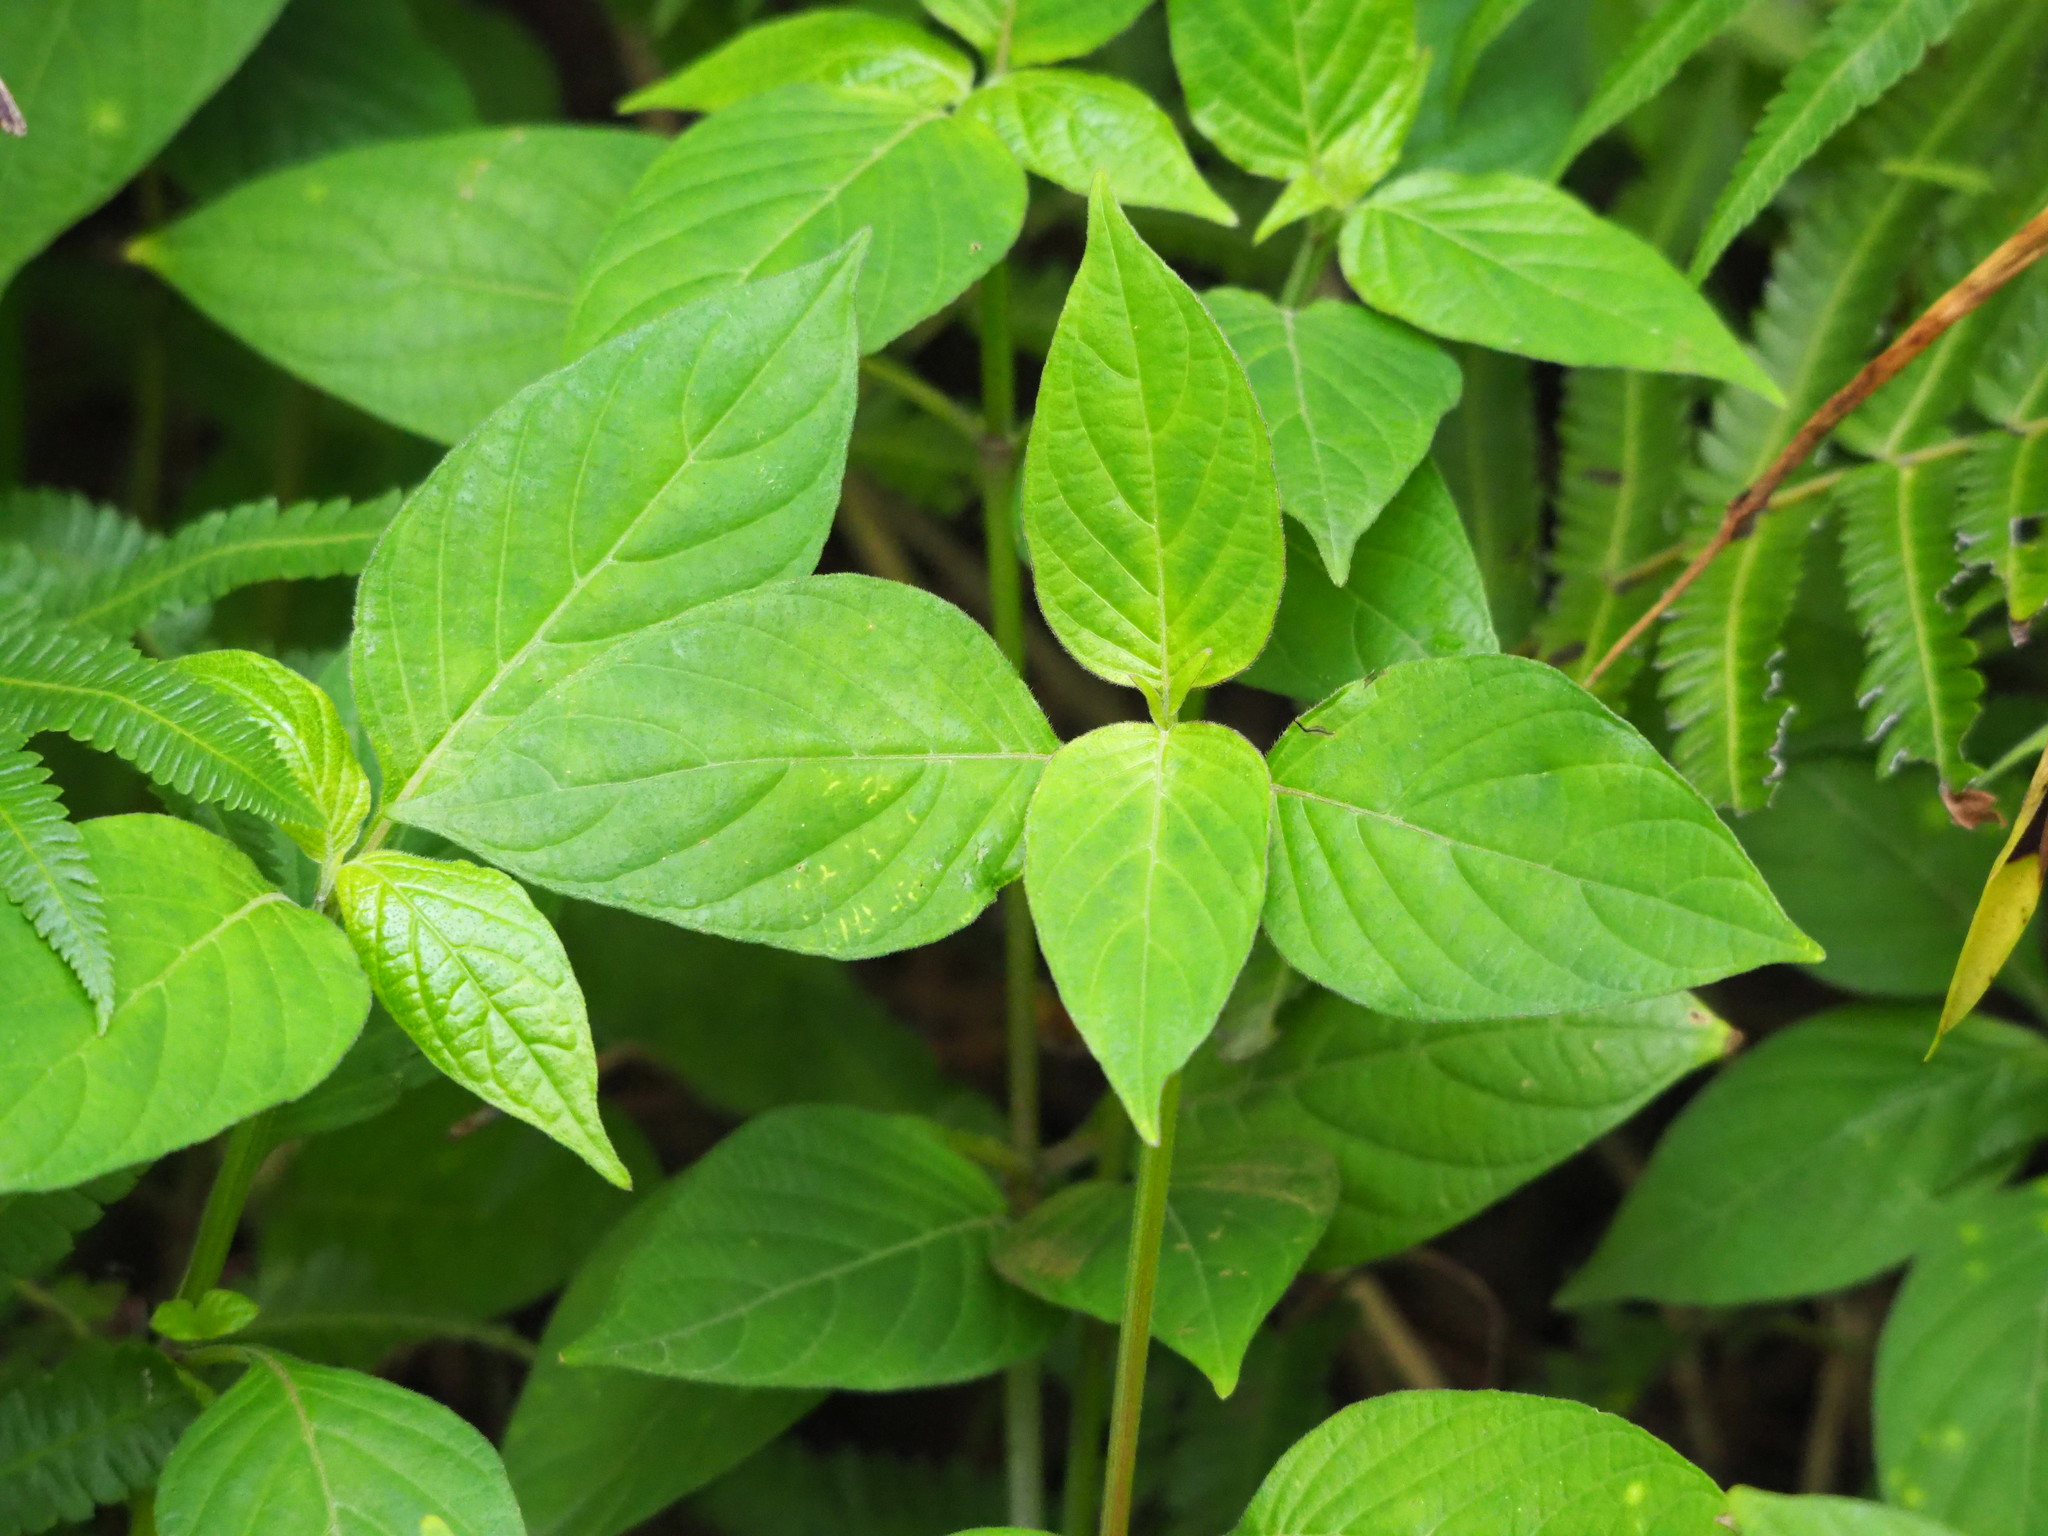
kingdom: Plantae
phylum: Tracheophyta
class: Magnoliopsida
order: Lamiales
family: Acanthaceae
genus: Asystasia
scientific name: Asystasia intrusa
